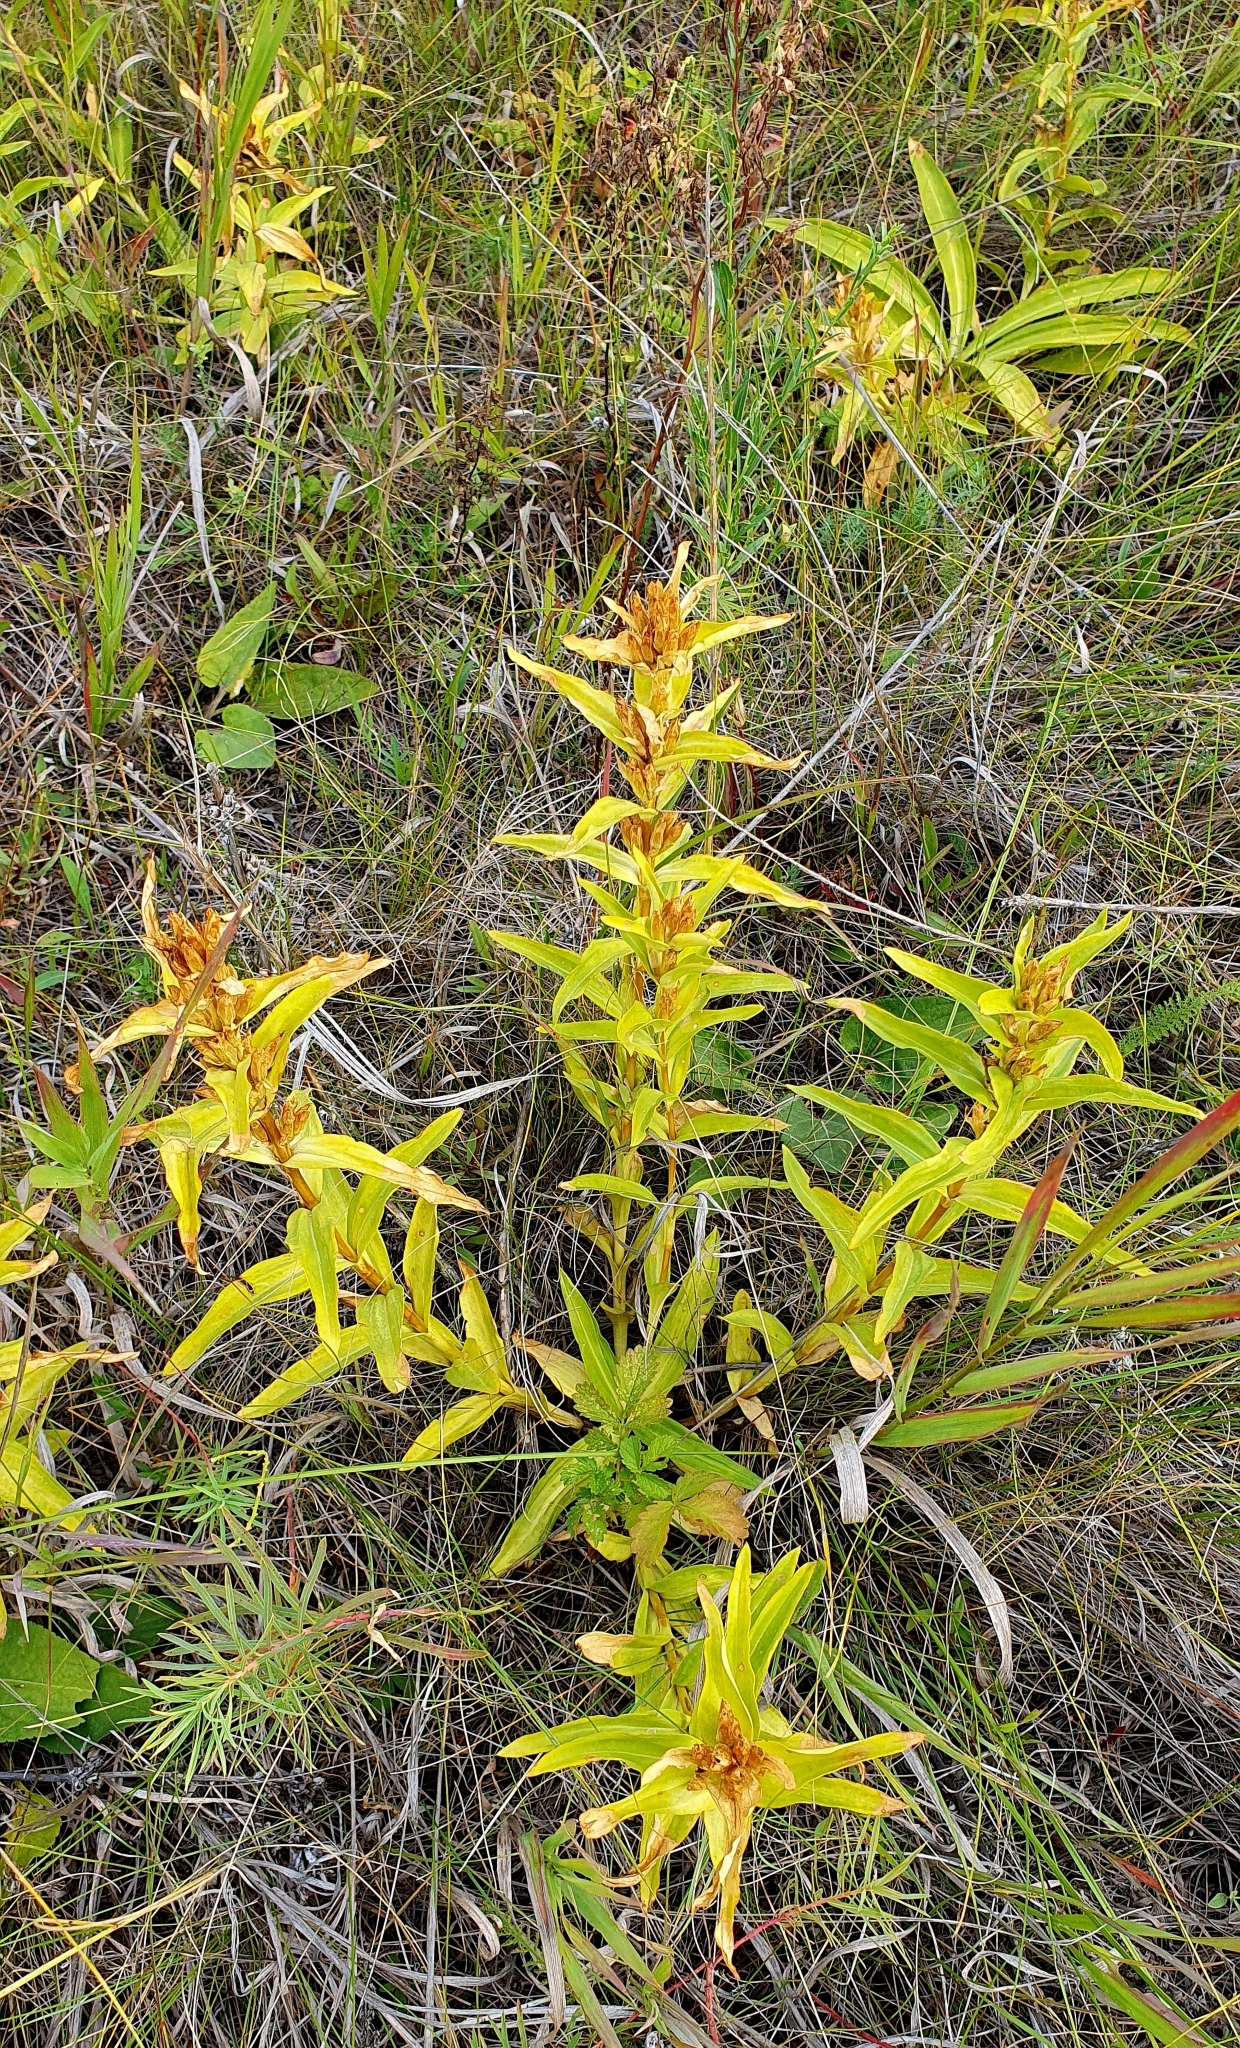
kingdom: Plantae
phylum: Tracheophyta
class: Magnoliopsida
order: Gentianales
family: Gentianaceae
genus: Gentiana
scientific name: Gentiana cruciata
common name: Cross gentian
